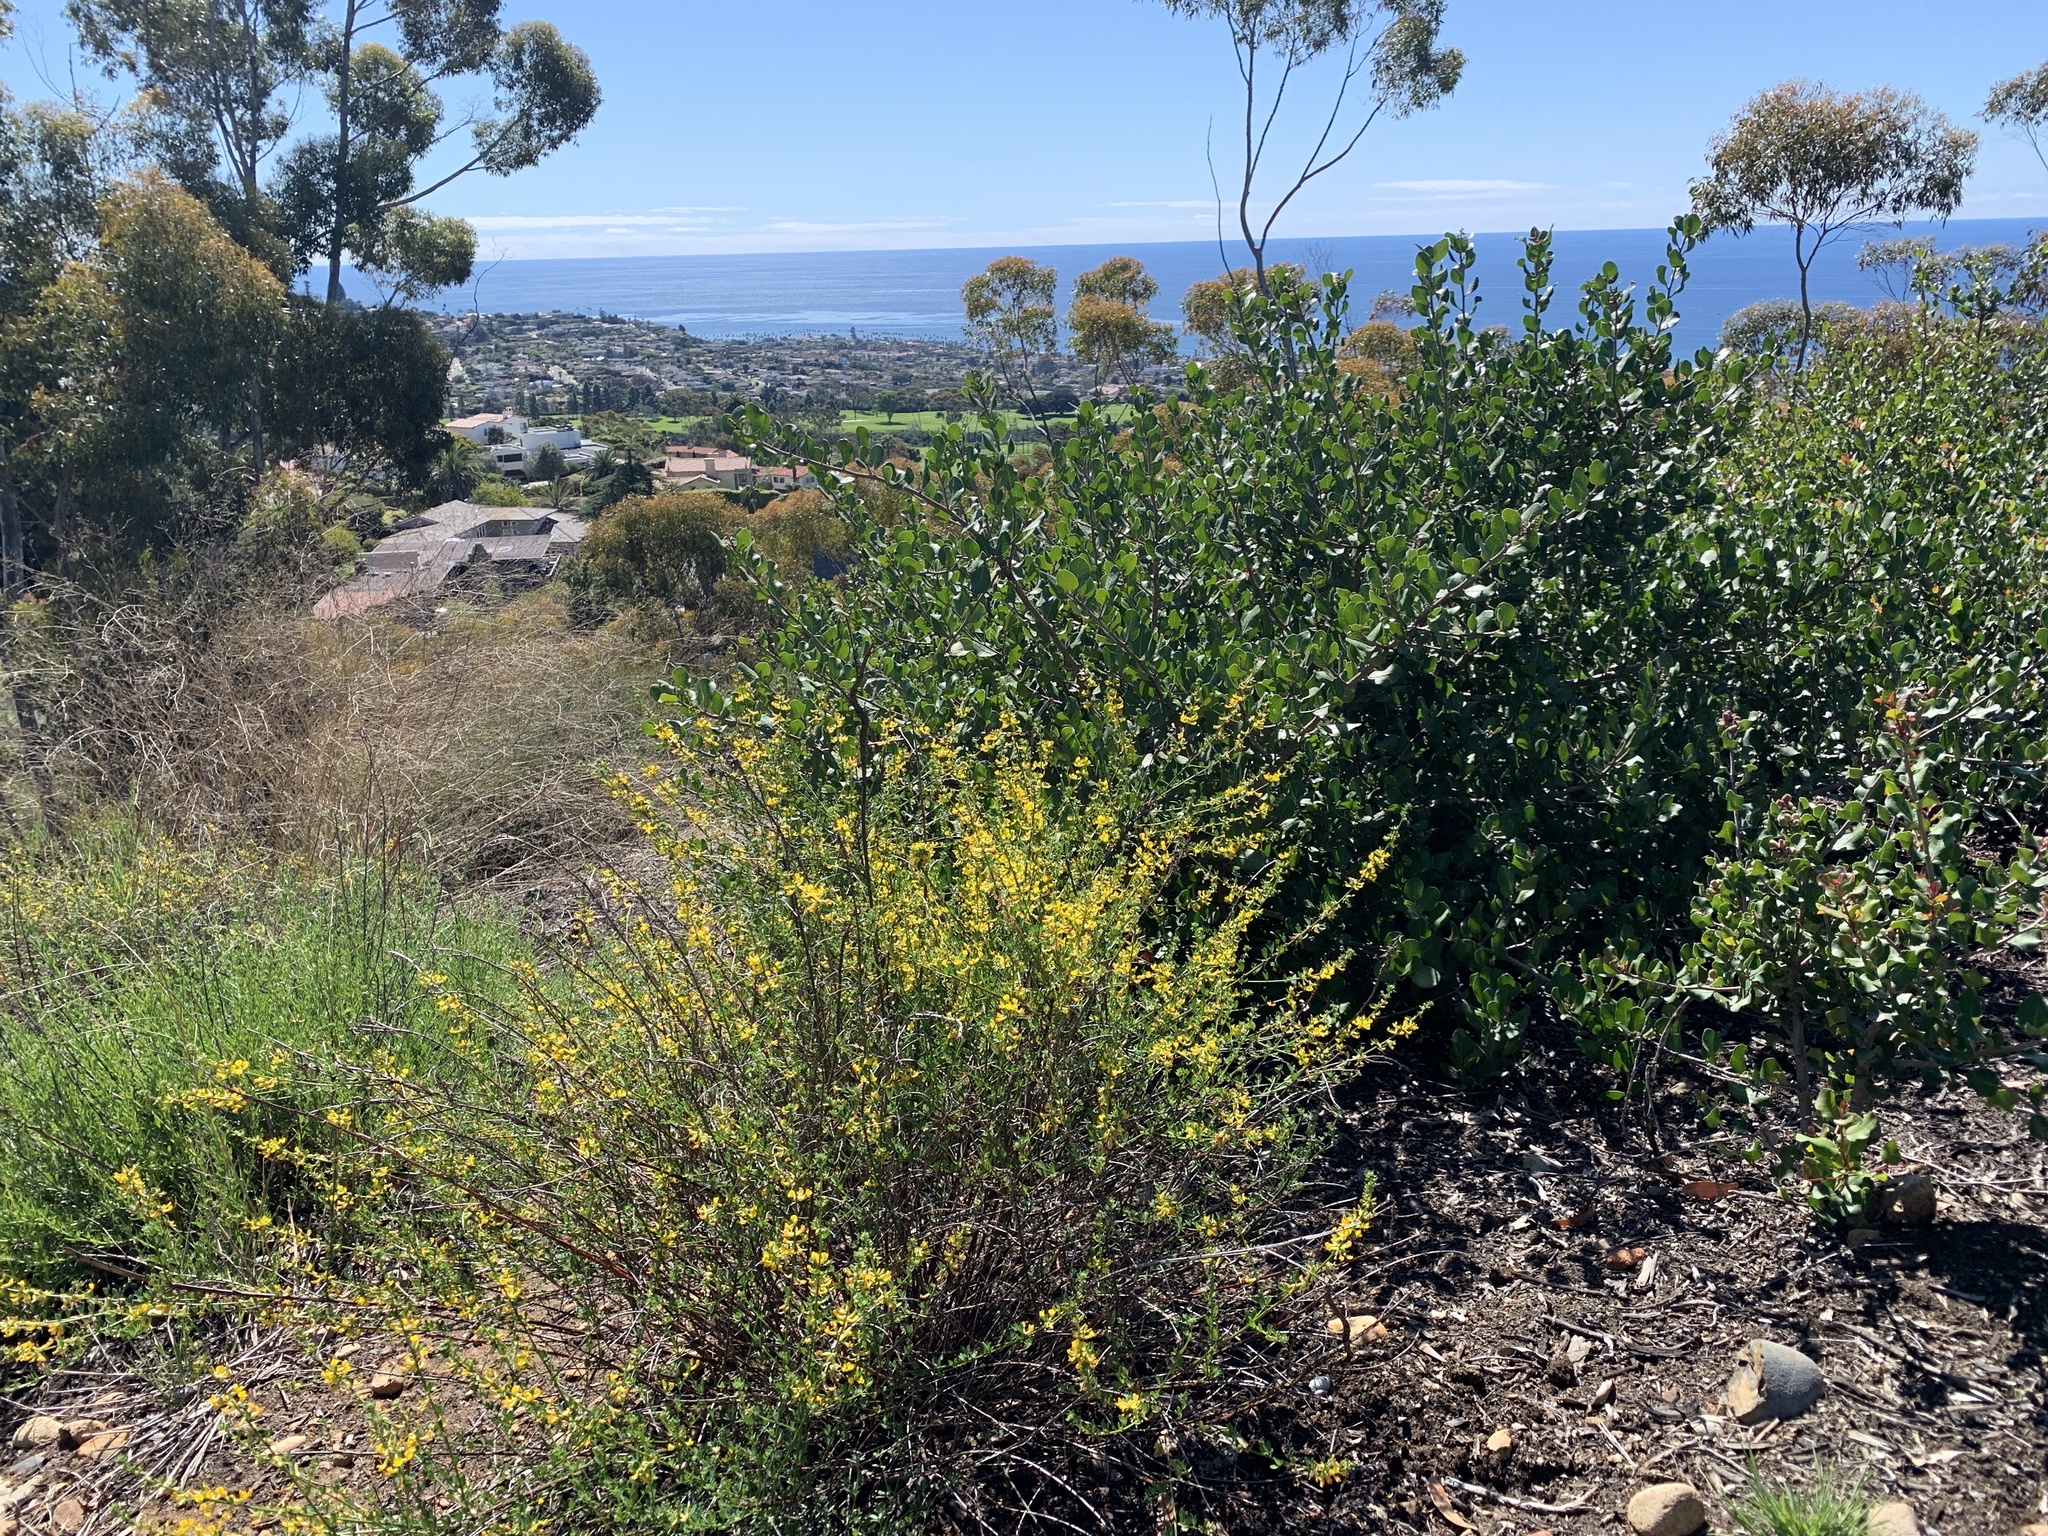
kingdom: Plantae
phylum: Tracheophyta
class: Magnoliopsida
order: Fabales
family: Fabaceae
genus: Acmispon
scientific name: Acmispon glaber
